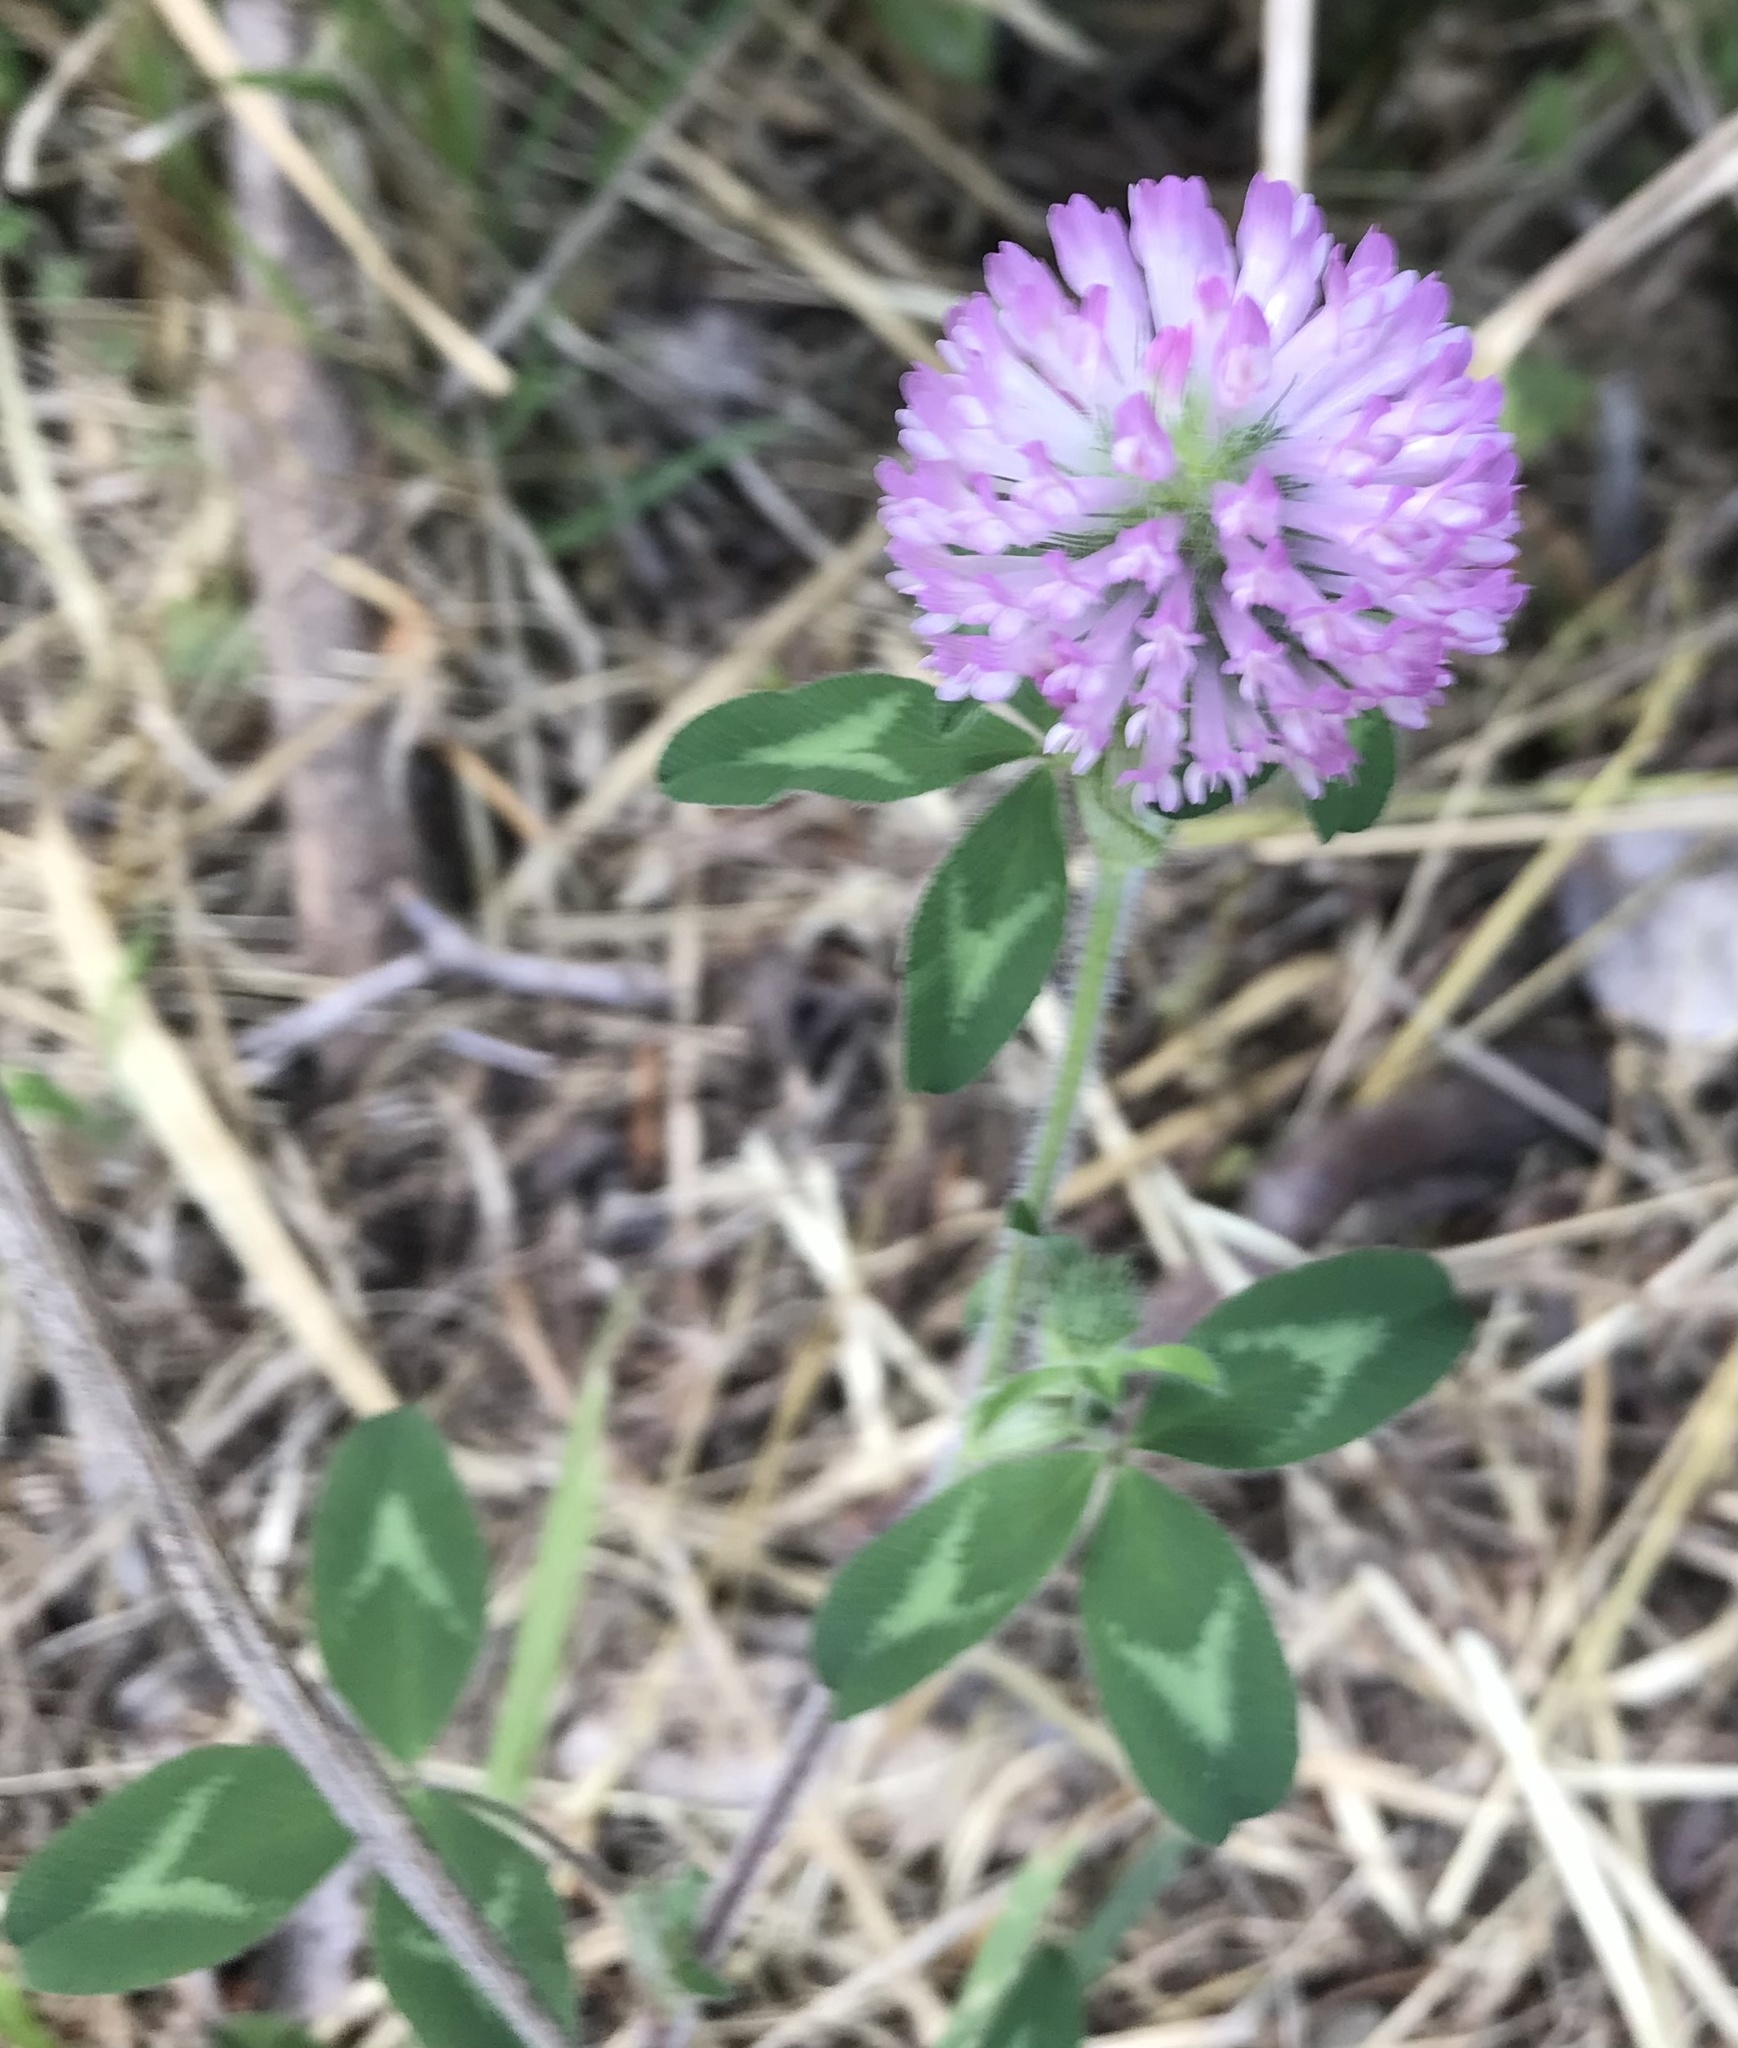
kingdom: Plantae
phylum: Tracheophyta
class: Magnoliopsida
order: Fabales
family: Fabaceae
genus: Trifolium
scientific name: Trifolium pratense
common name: Red clover
